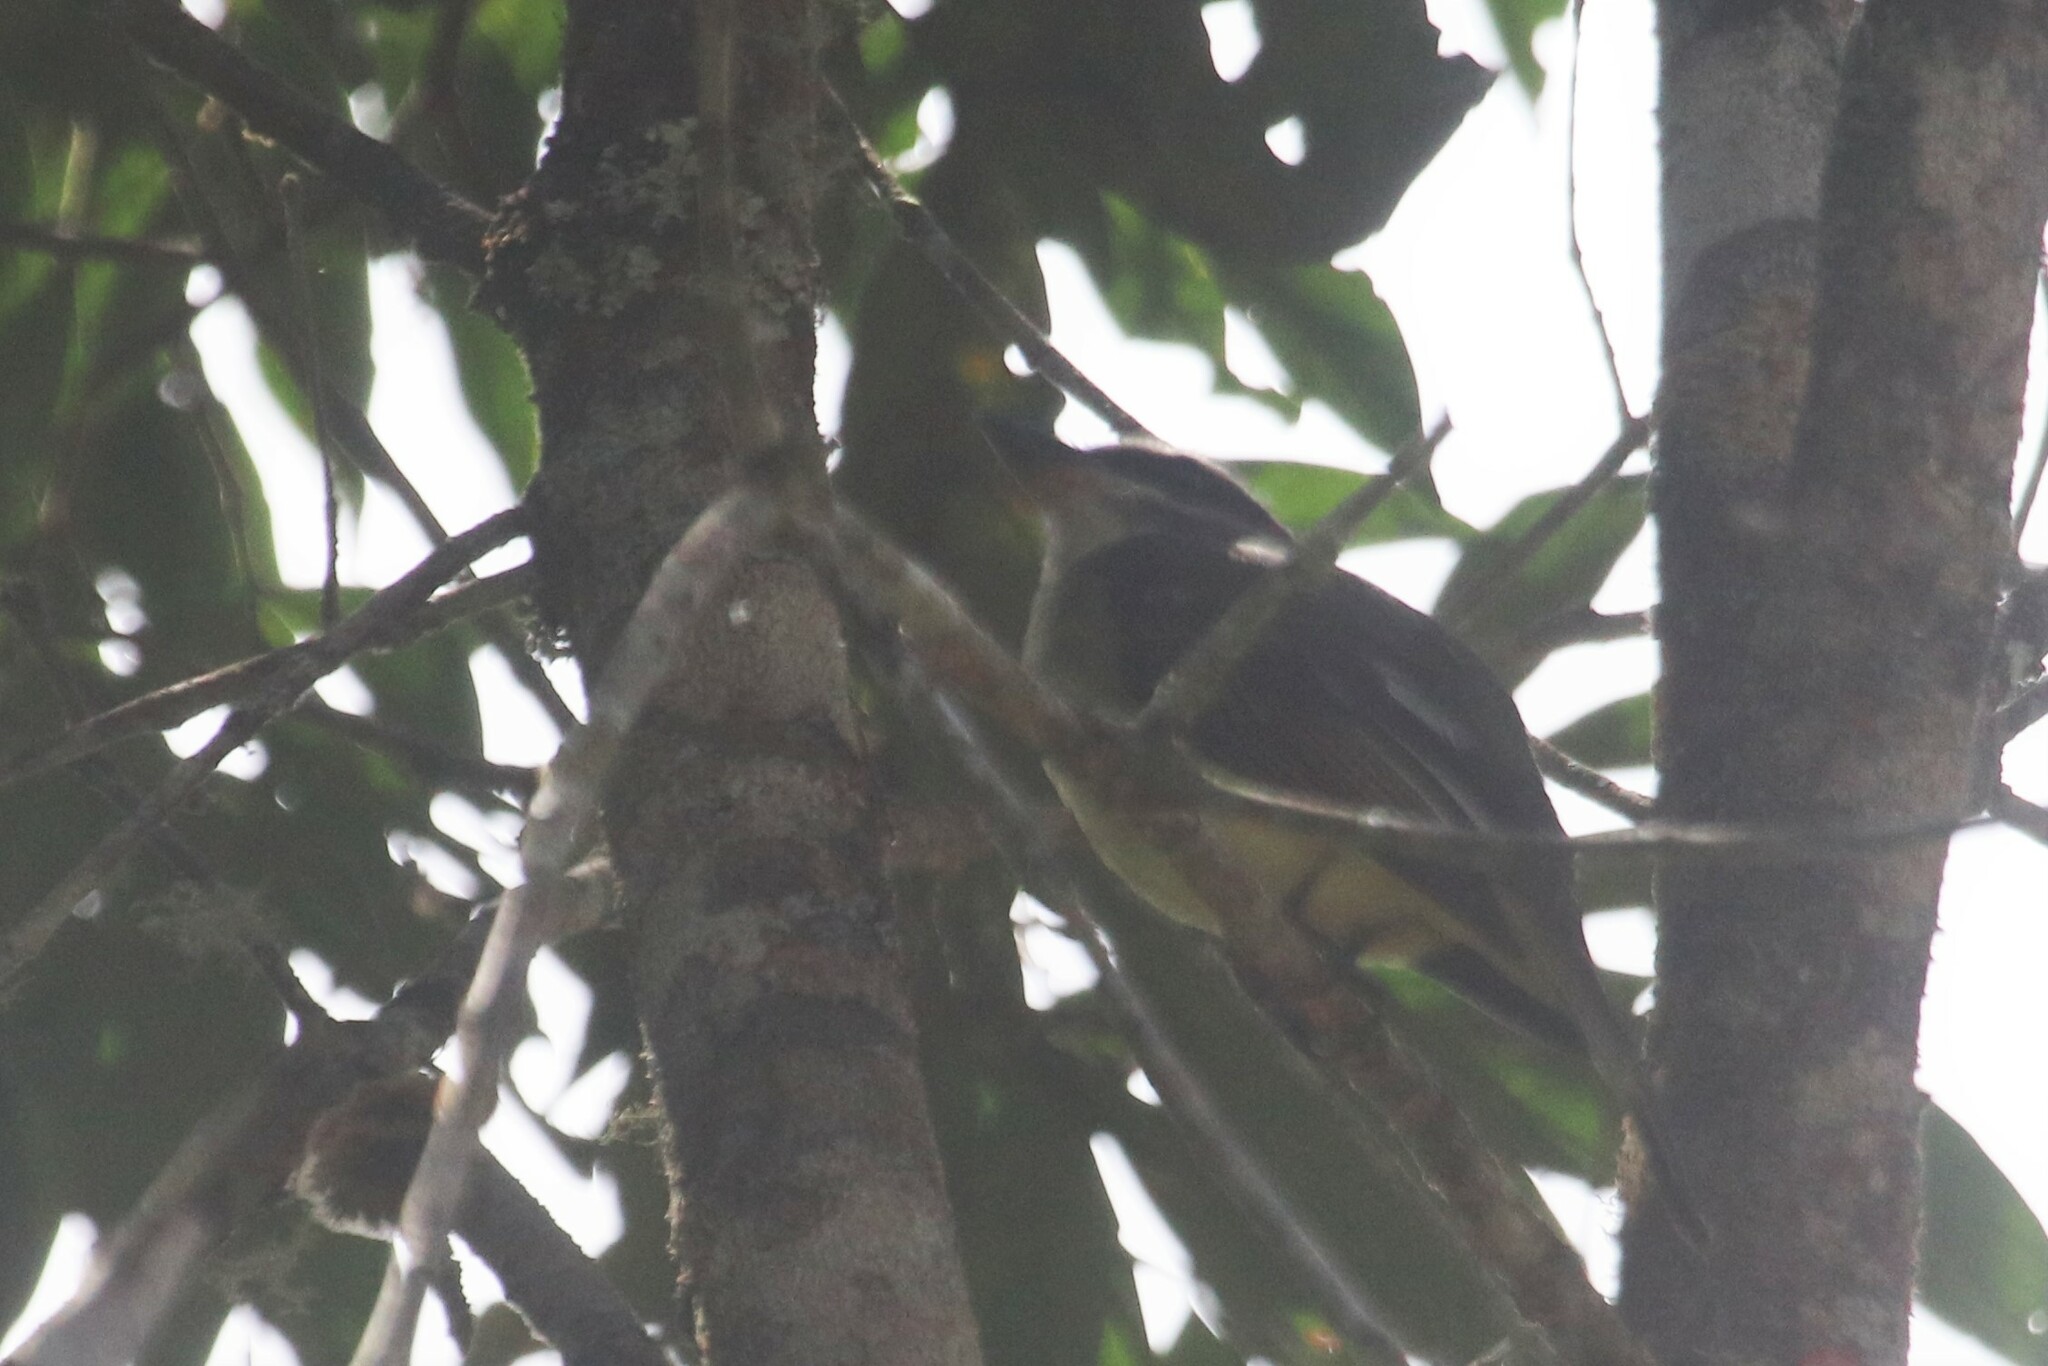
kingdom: Animalia
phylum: Chordata
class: Aves
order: Passeriformes
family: Tyrannidae
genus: Myiodynastes
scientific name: Myiodynastes hemichrysus
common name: Golden-bellied flycatcher
